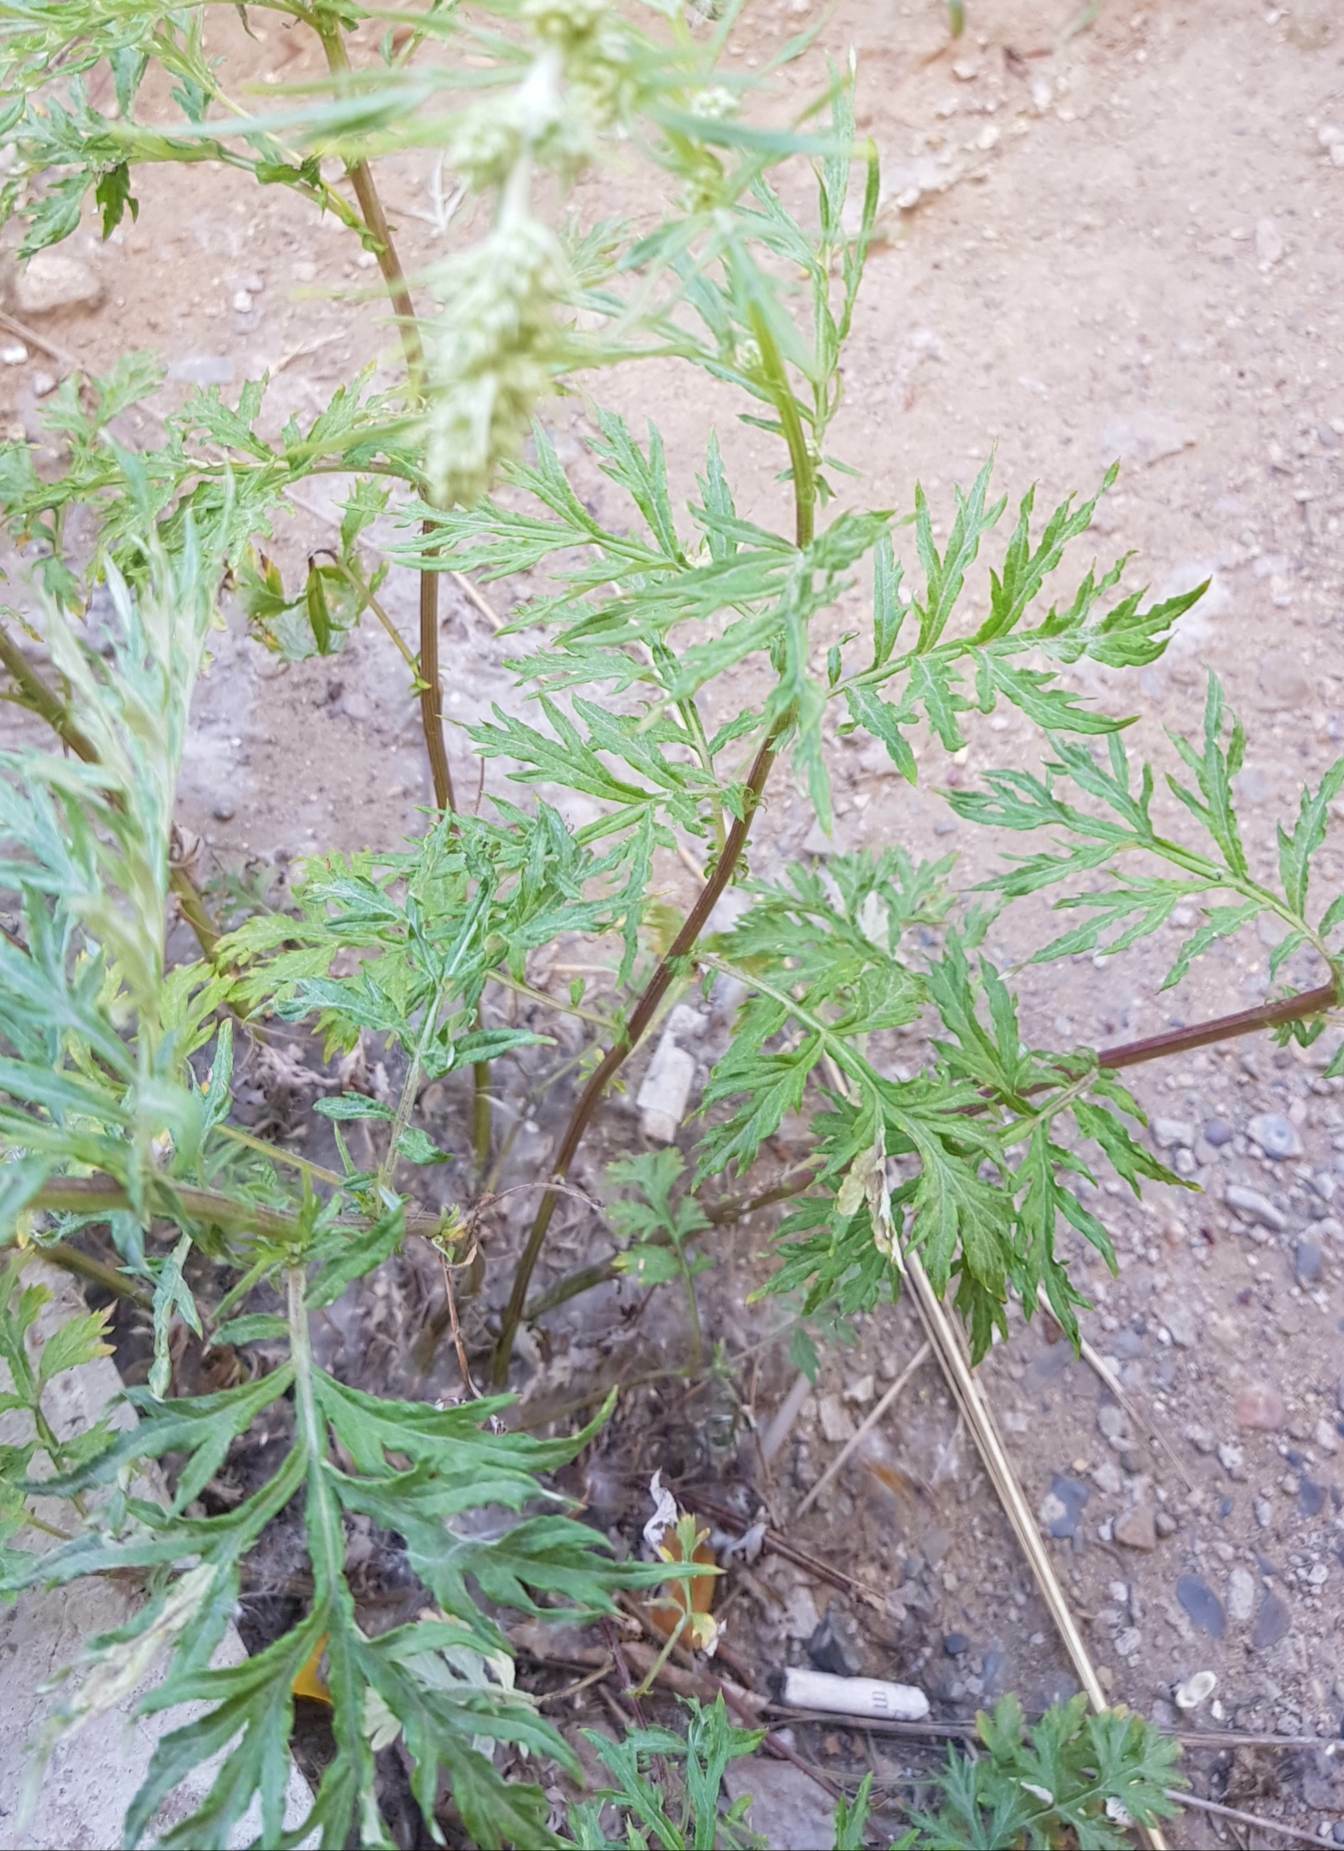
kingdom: Plantae
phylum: Tracheophyta
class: Magnoliopsida
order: Asterales
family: Asteraceae
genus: Artemisia
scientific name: Artemisia vulgaris
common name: Mugwort
